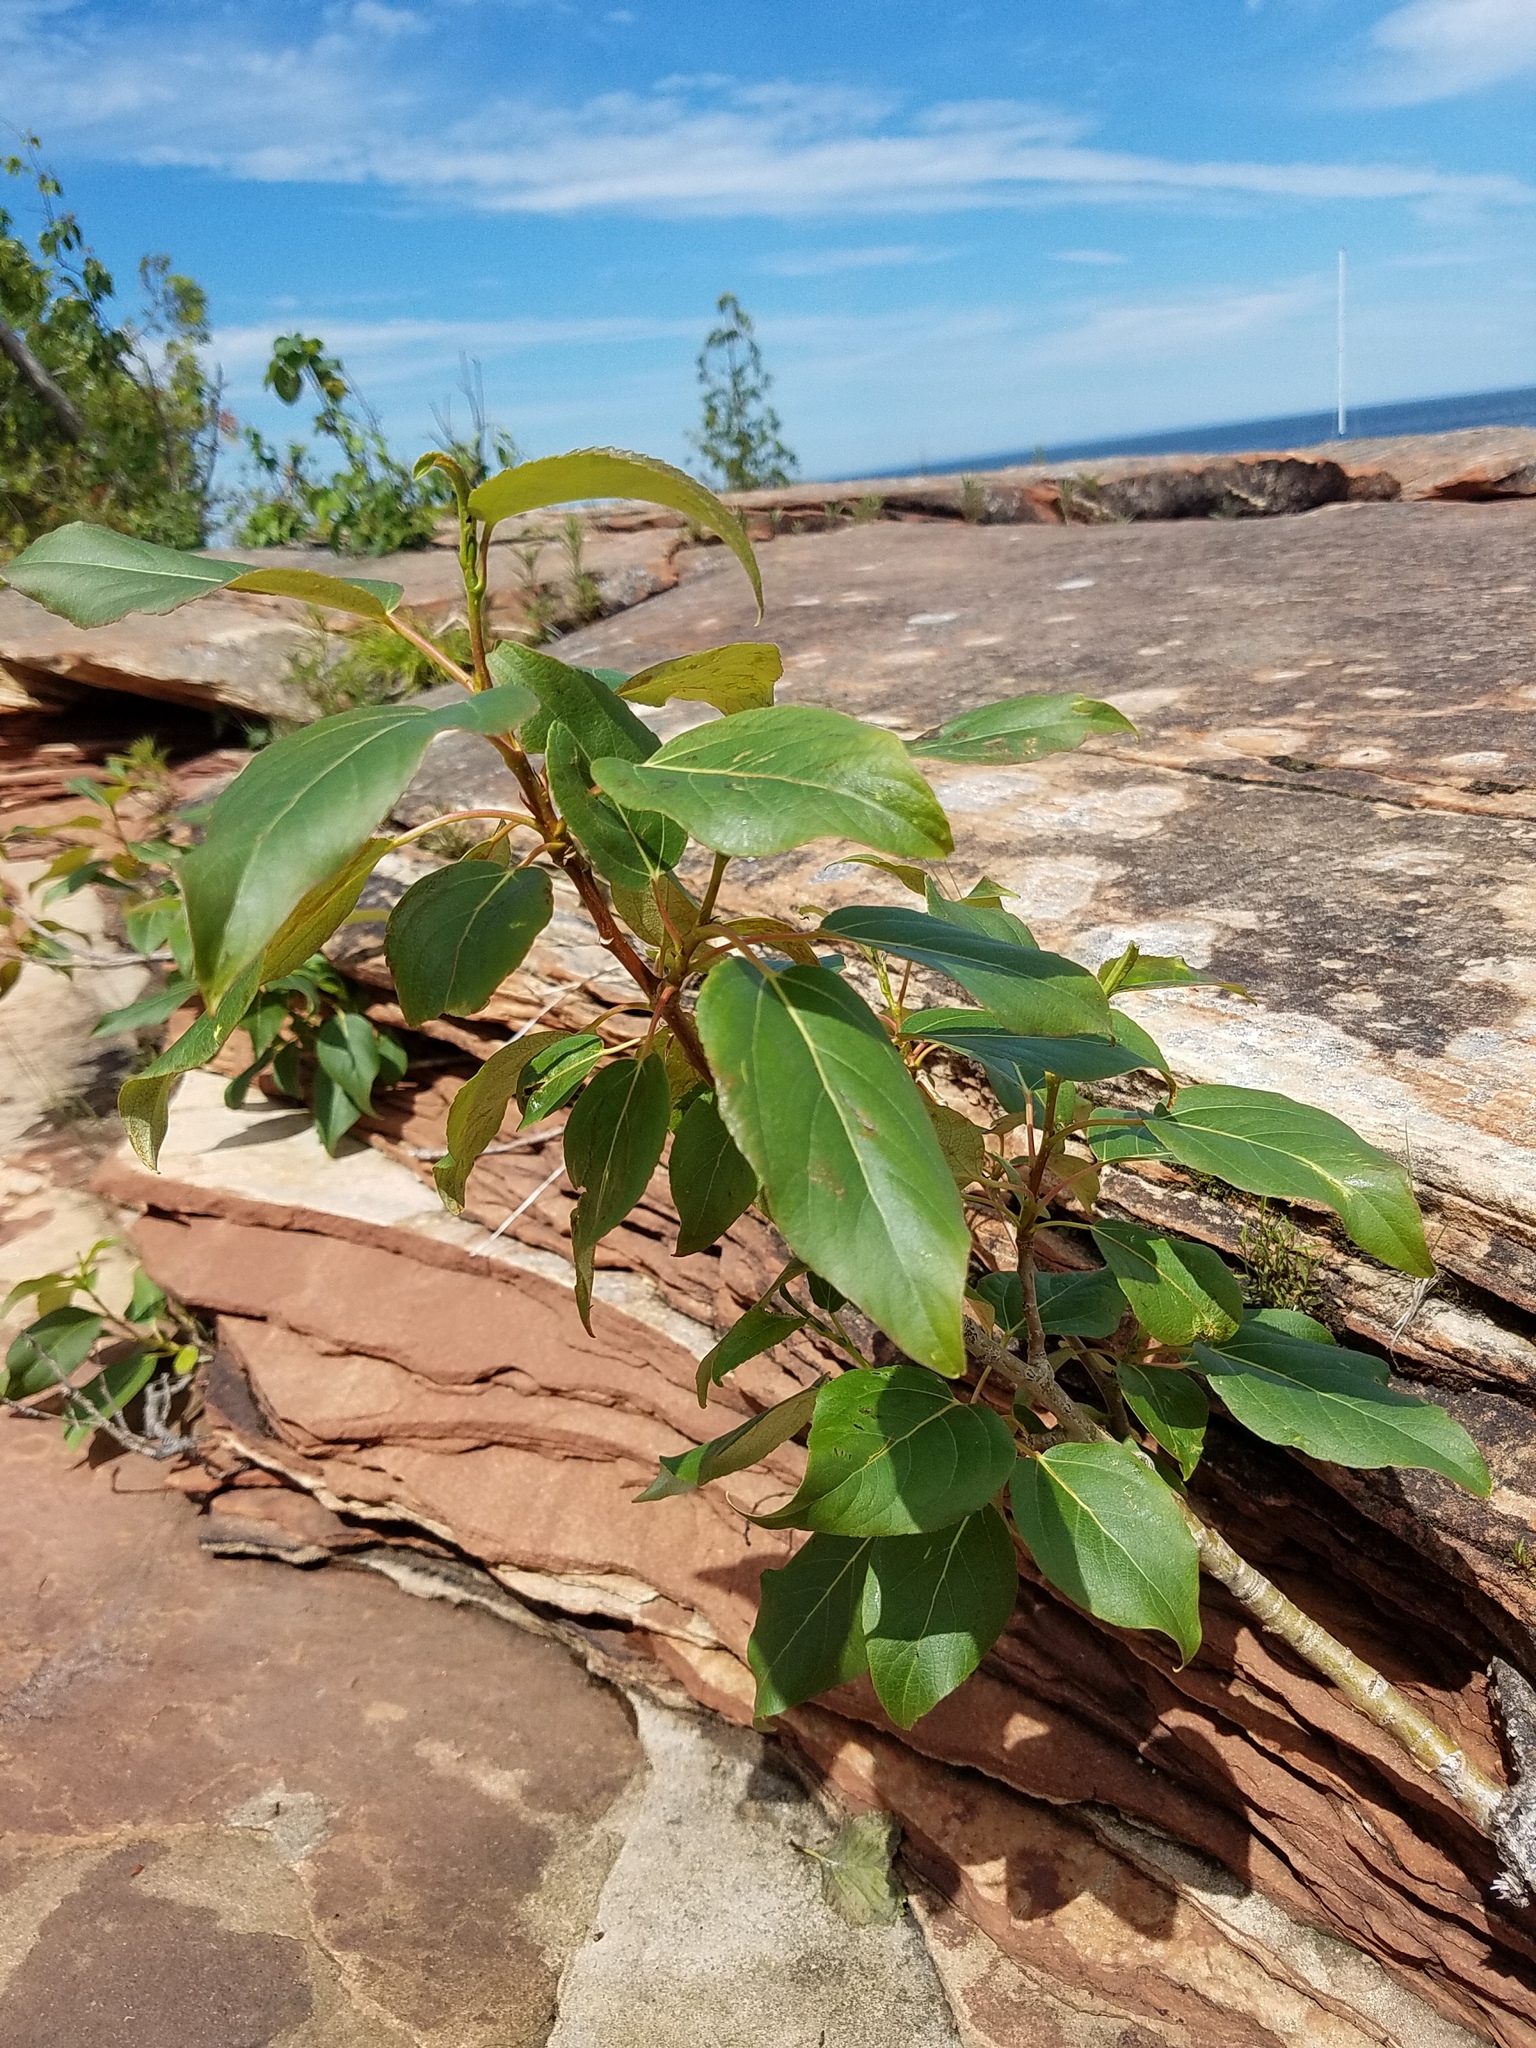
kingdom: Plantae
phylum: Tracheophyta
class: Magnoliopsida
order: Malpighiales
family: Salicaceae
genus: Populus
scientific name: Populus balsamifera
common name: Balsam poplar
